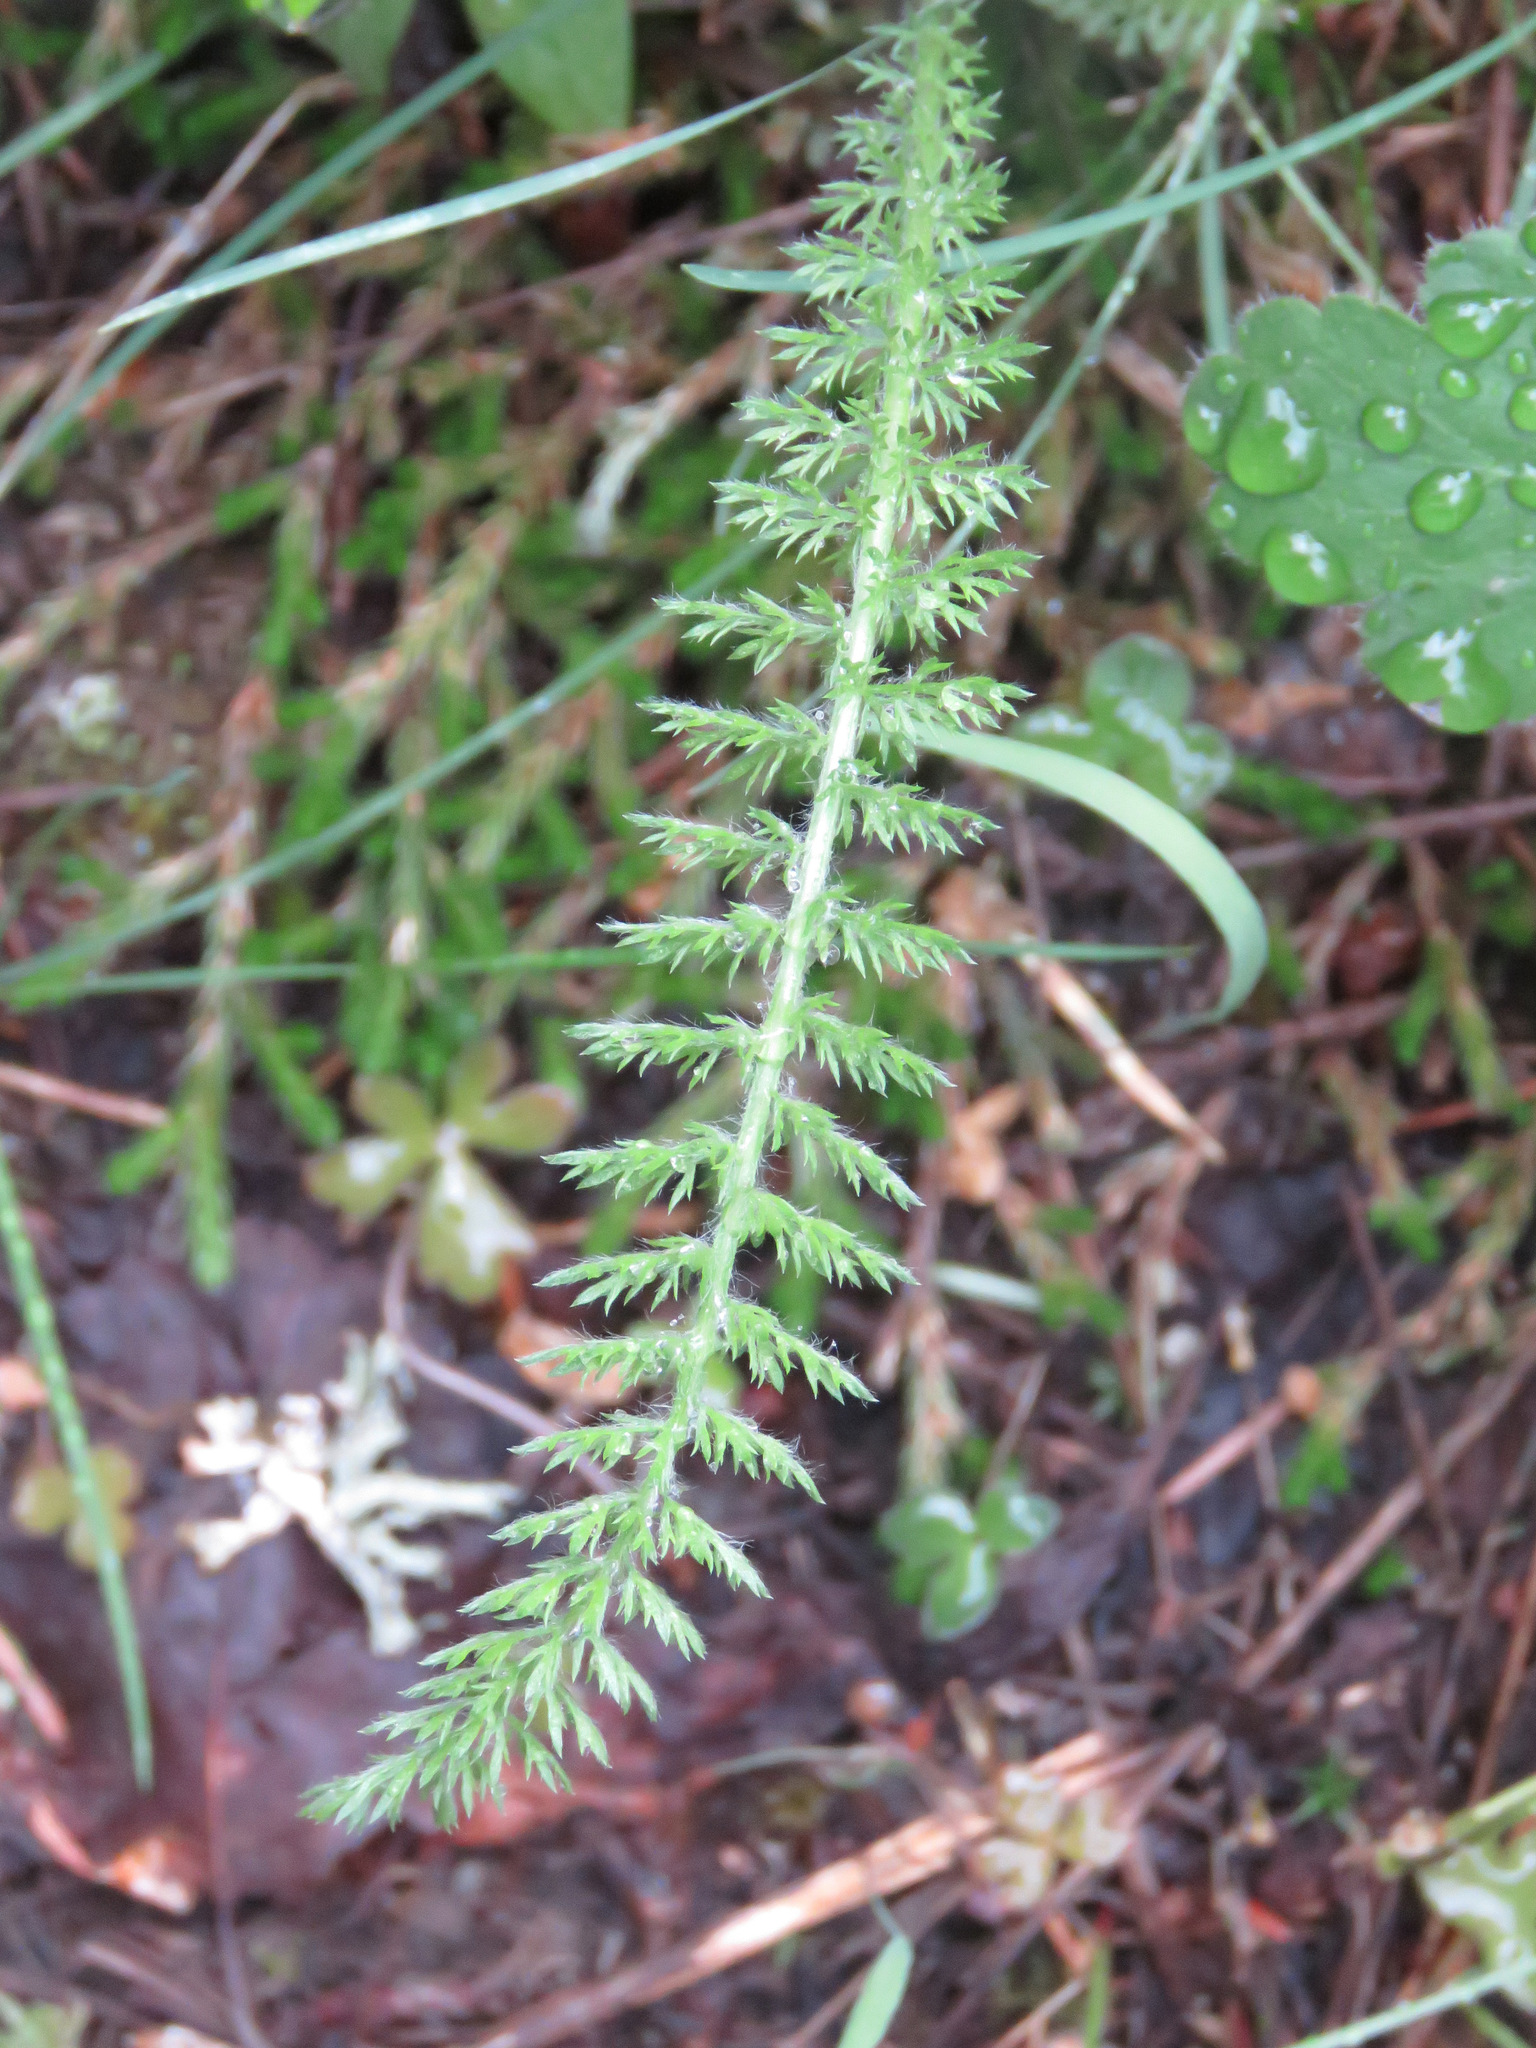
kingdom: Plantae
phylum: Tracheophyta
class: Magnoliopsida
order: Asterales
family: Asteraceae
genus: Achillea
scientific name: Achillea millefolium
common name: Yarrow
